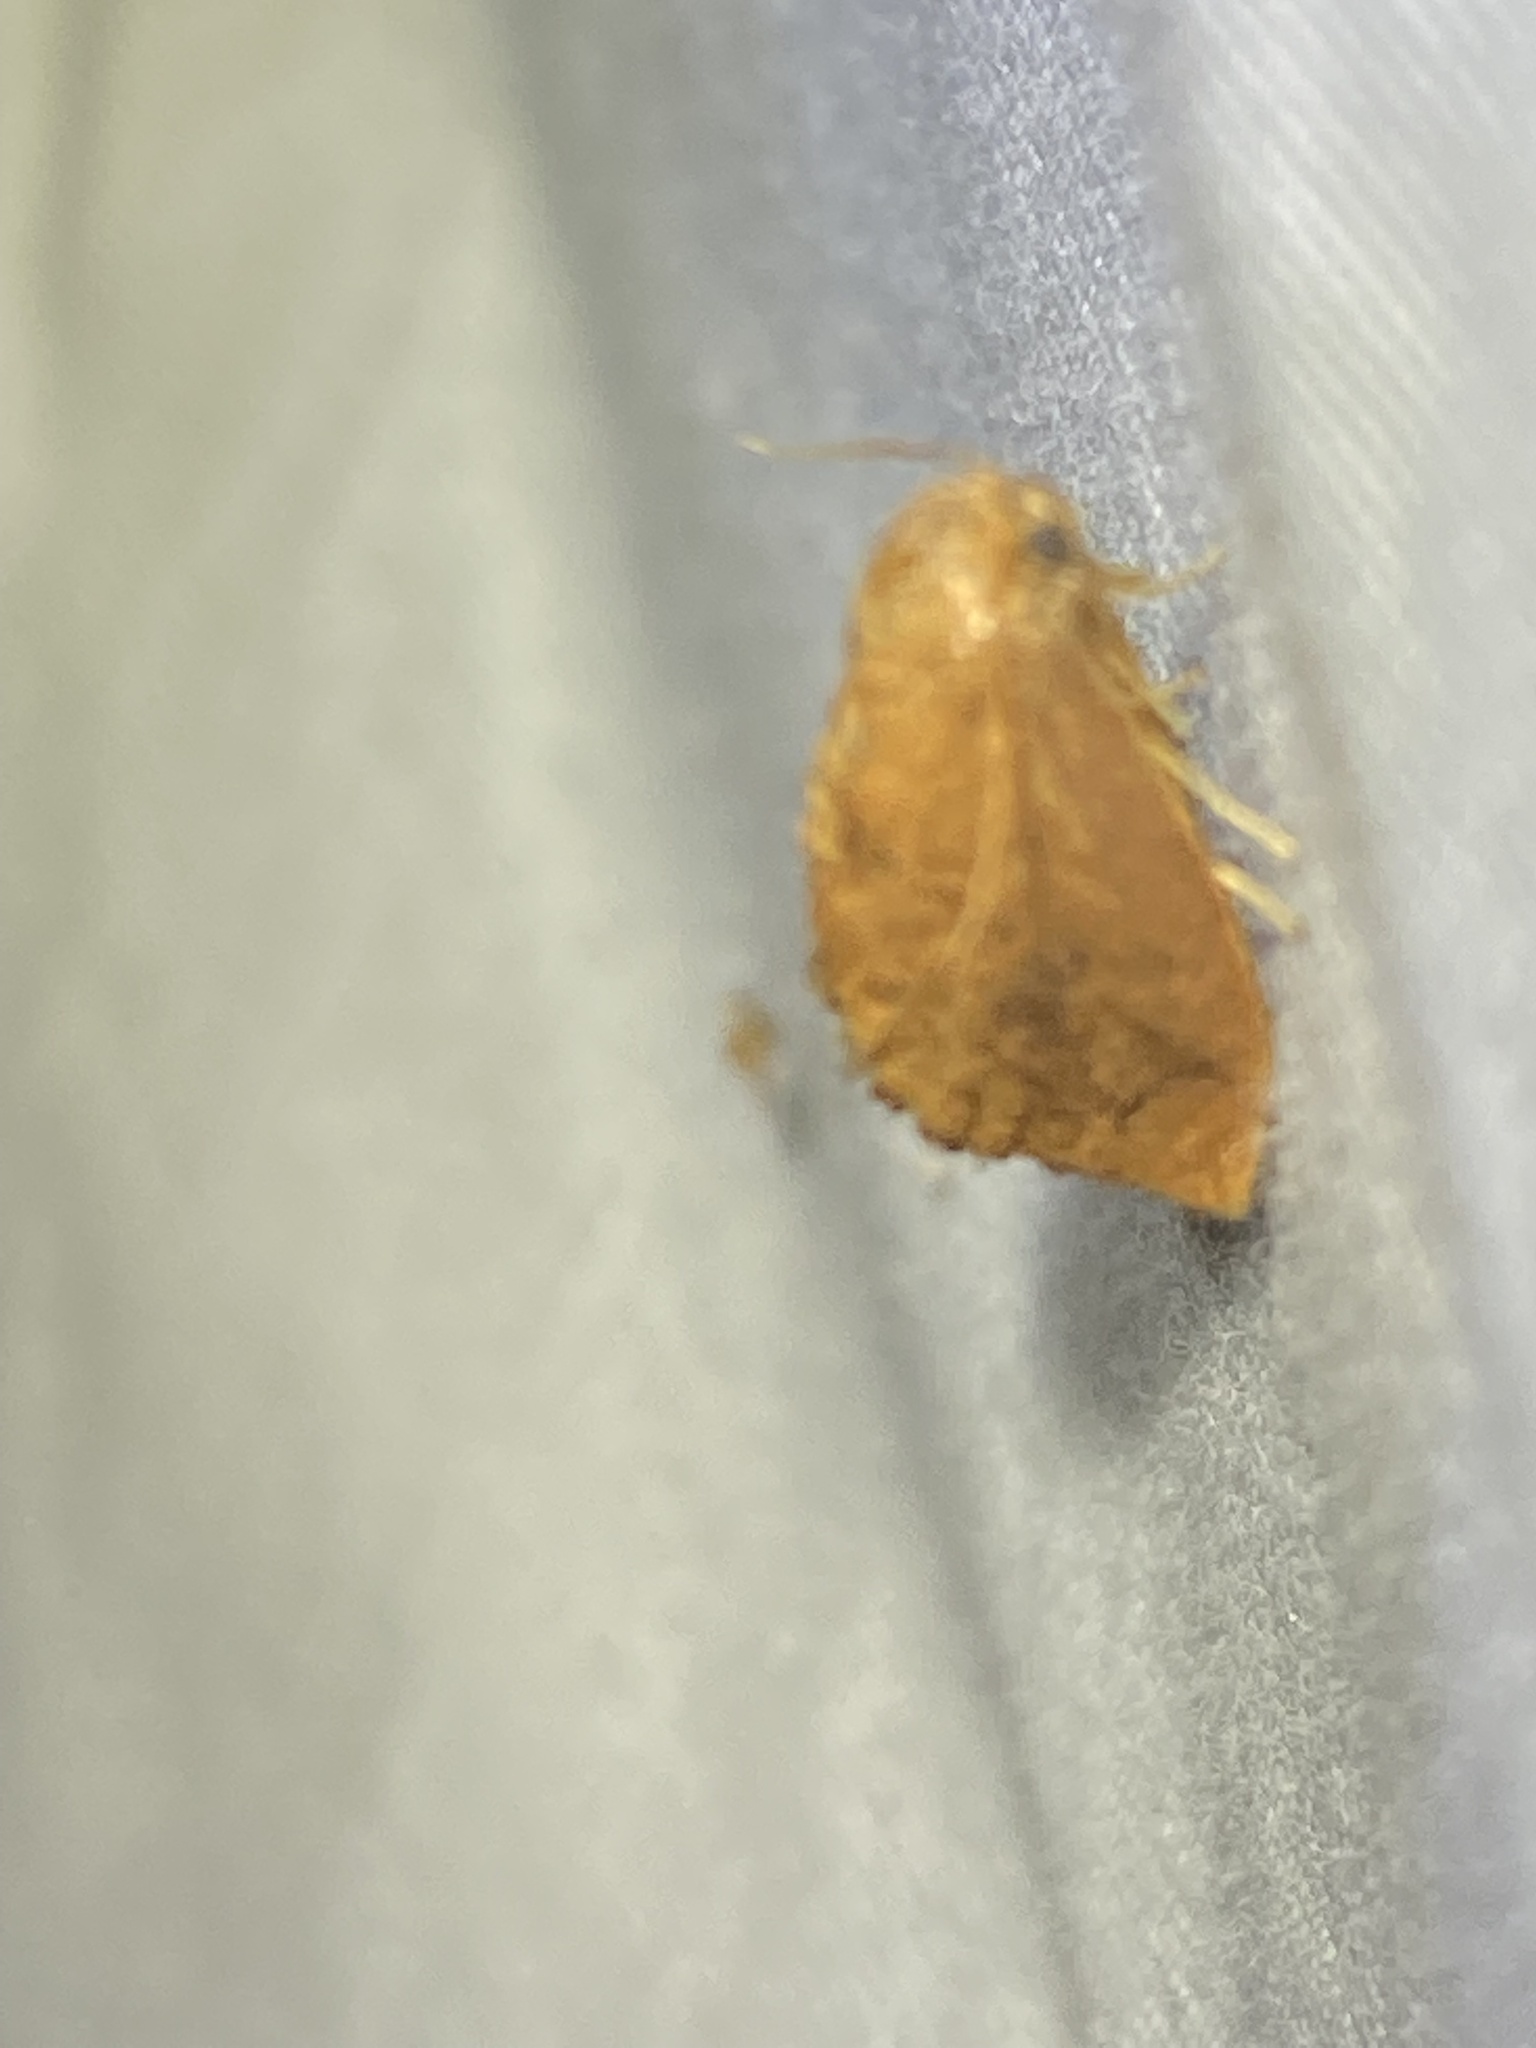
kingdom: Animalia
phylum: Arthropoda
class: Insecta
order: Lepidoptera
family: Limacodidae
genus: Heterogenea
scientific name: Heterogenea shurtleffi
